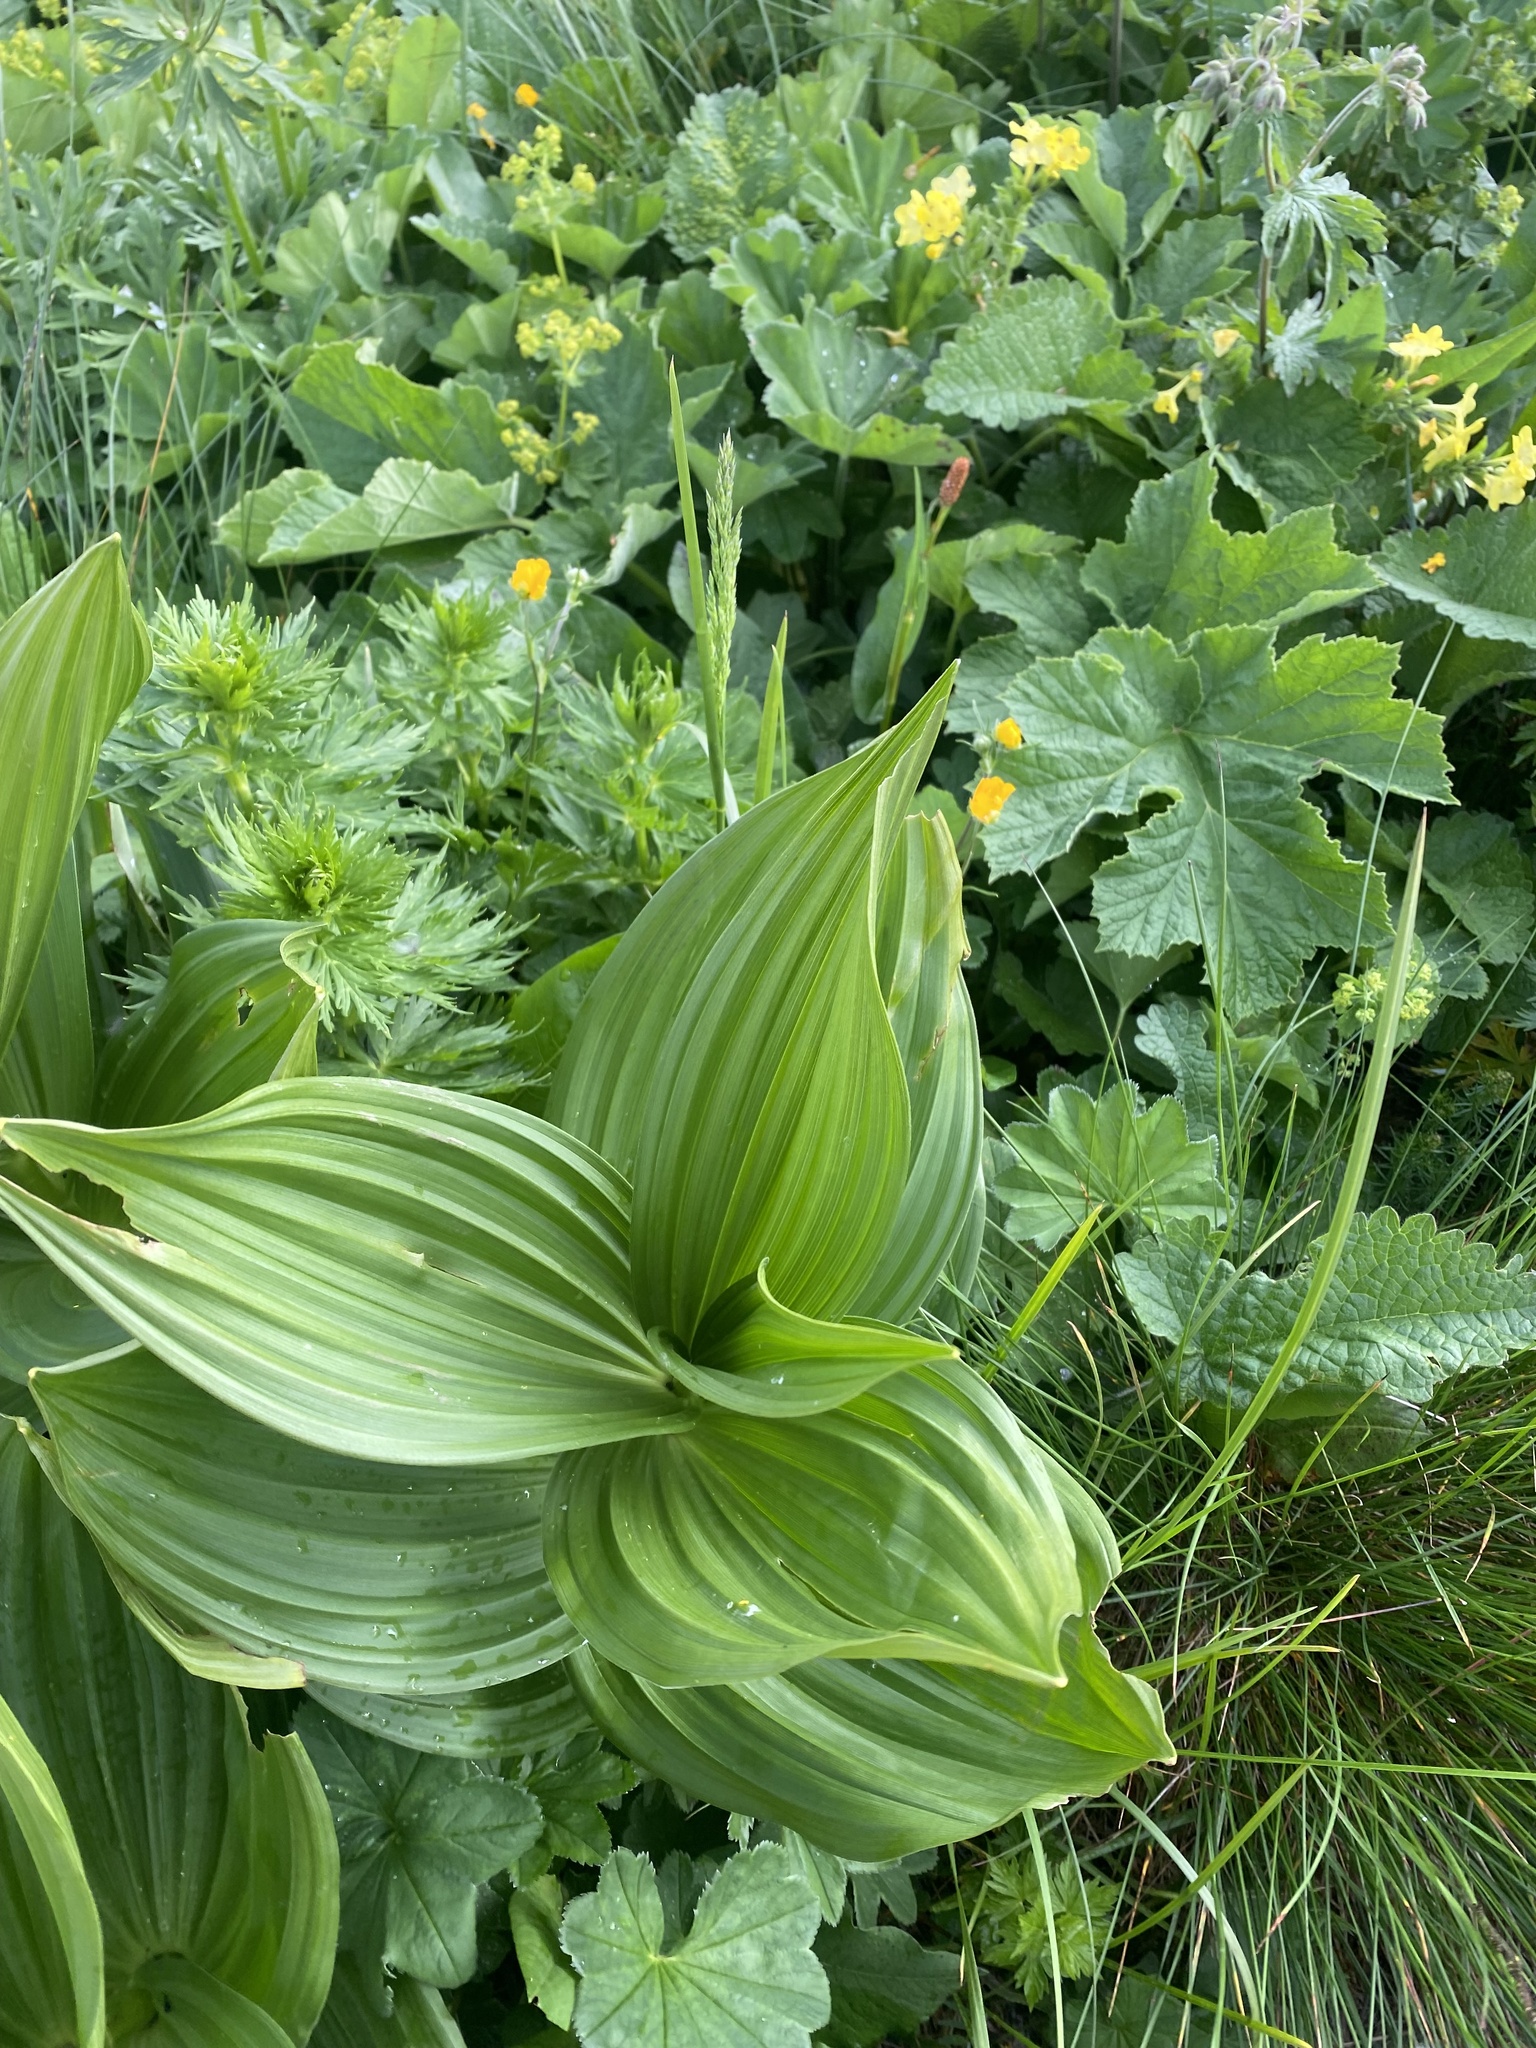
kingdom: Plantae
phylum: Tracheophyta
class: Liliopsida
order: Liliales
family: Melanthiaceae
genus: Veratrum
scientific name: Veratrum lobelianum
